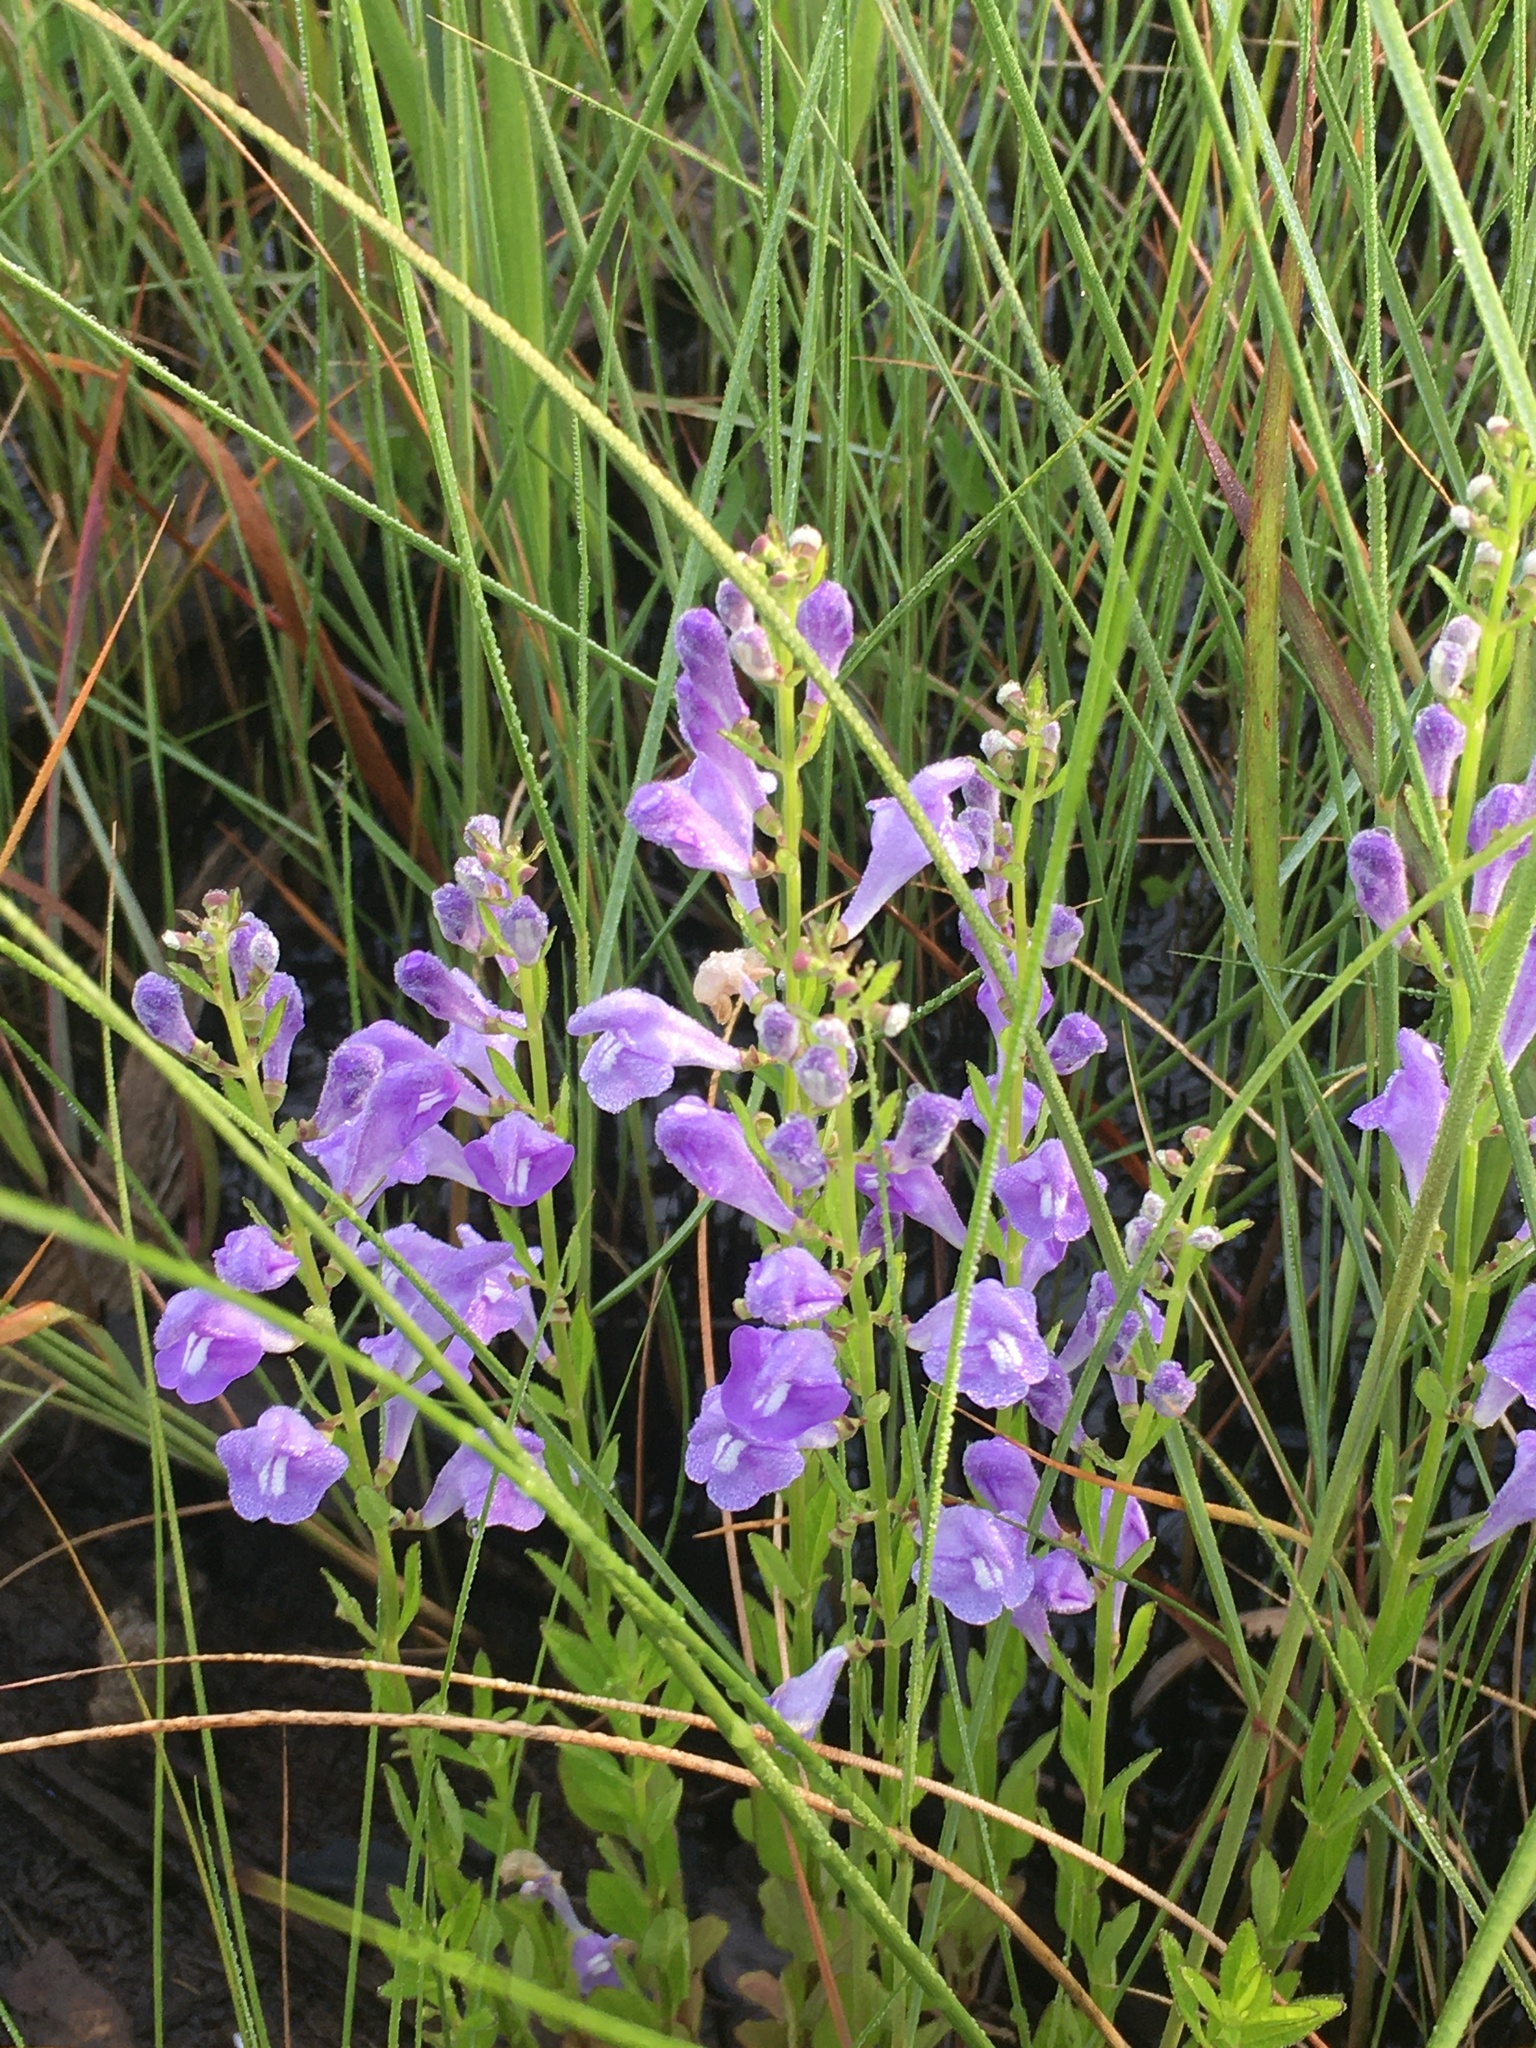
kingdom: Plantae
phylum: Tracheophyta
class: Magnoliopsida
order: Lamiales
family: Lamiaceae
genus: Scutellaria
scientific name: Scutellaria integrifolia
